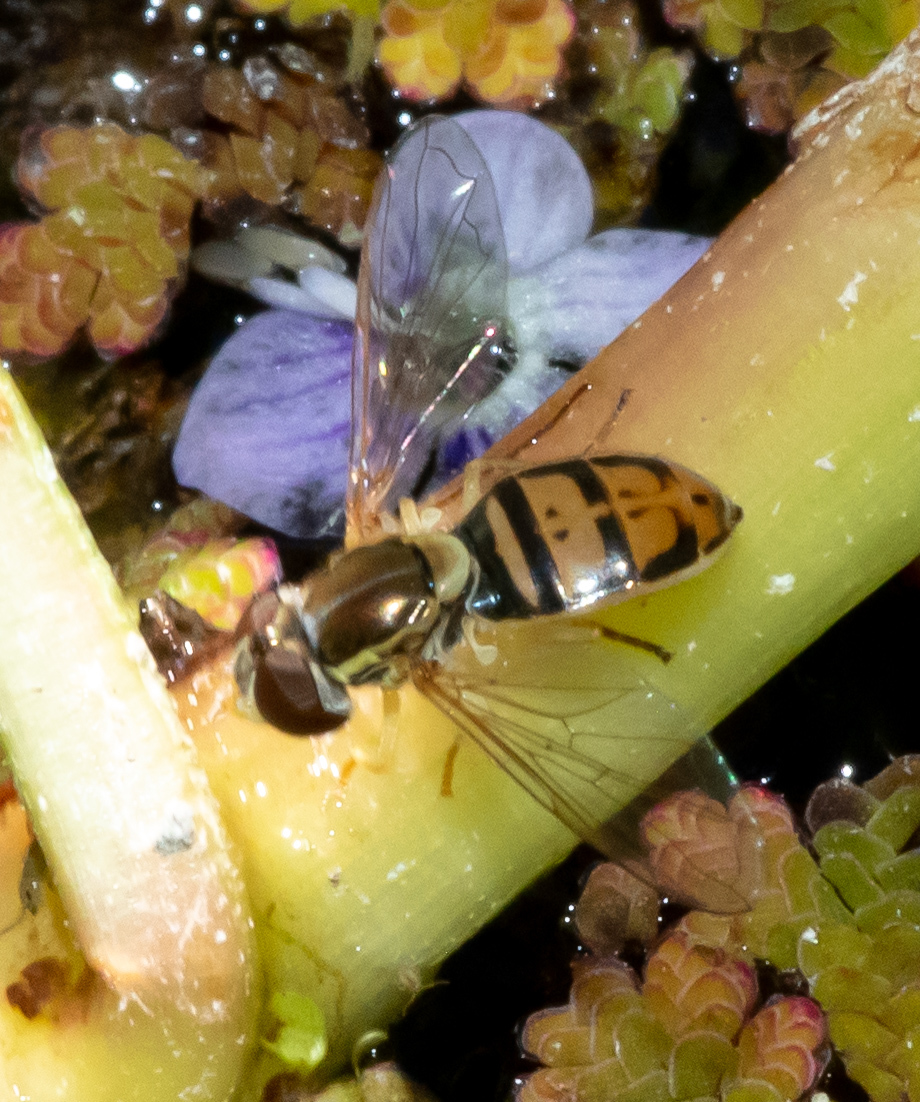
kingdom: Animalia
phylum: Arthropoda
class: Insecta
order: Diptera
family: Syrphidae
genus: Toxomerus
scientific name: Toxomerus marginatus
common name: Syrphid fly
